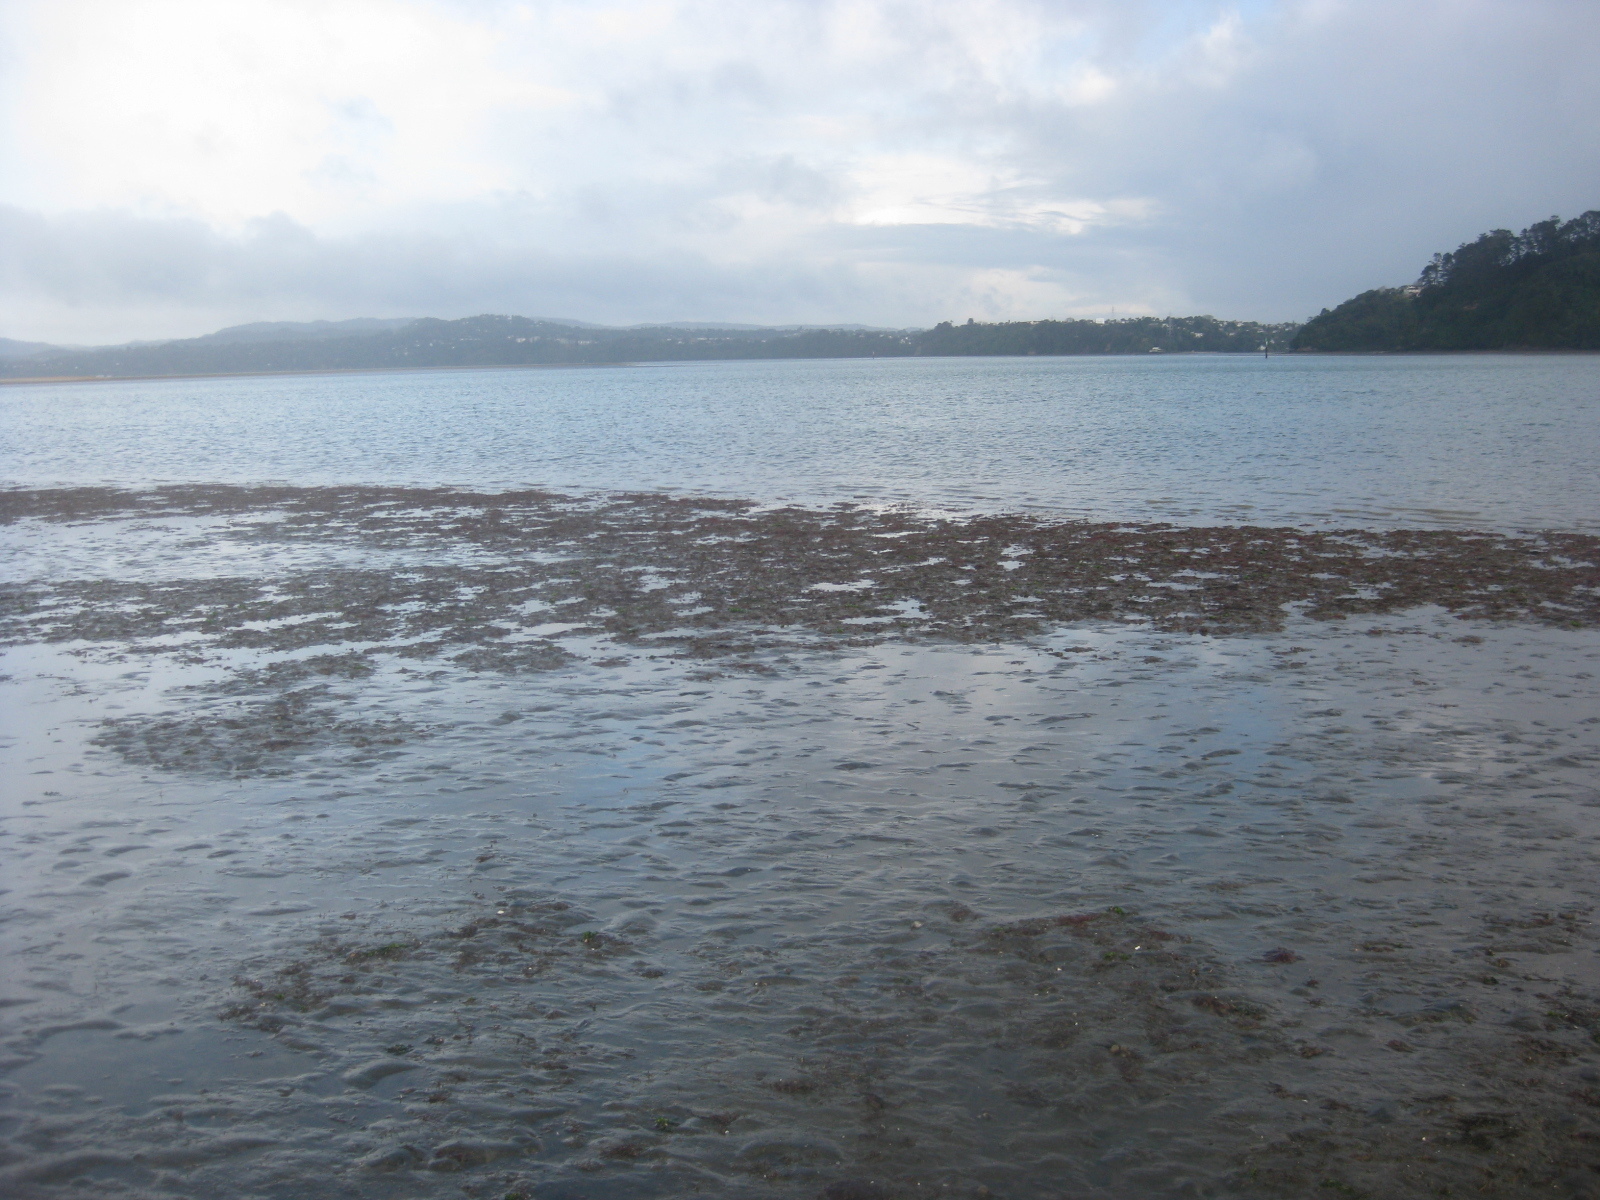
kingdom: Animalia
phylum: Echinodermata
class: Asteroidea
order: Forcipulatida
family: Asteriidae
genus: Coscinasterias
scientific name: Coscinasterias muricata
